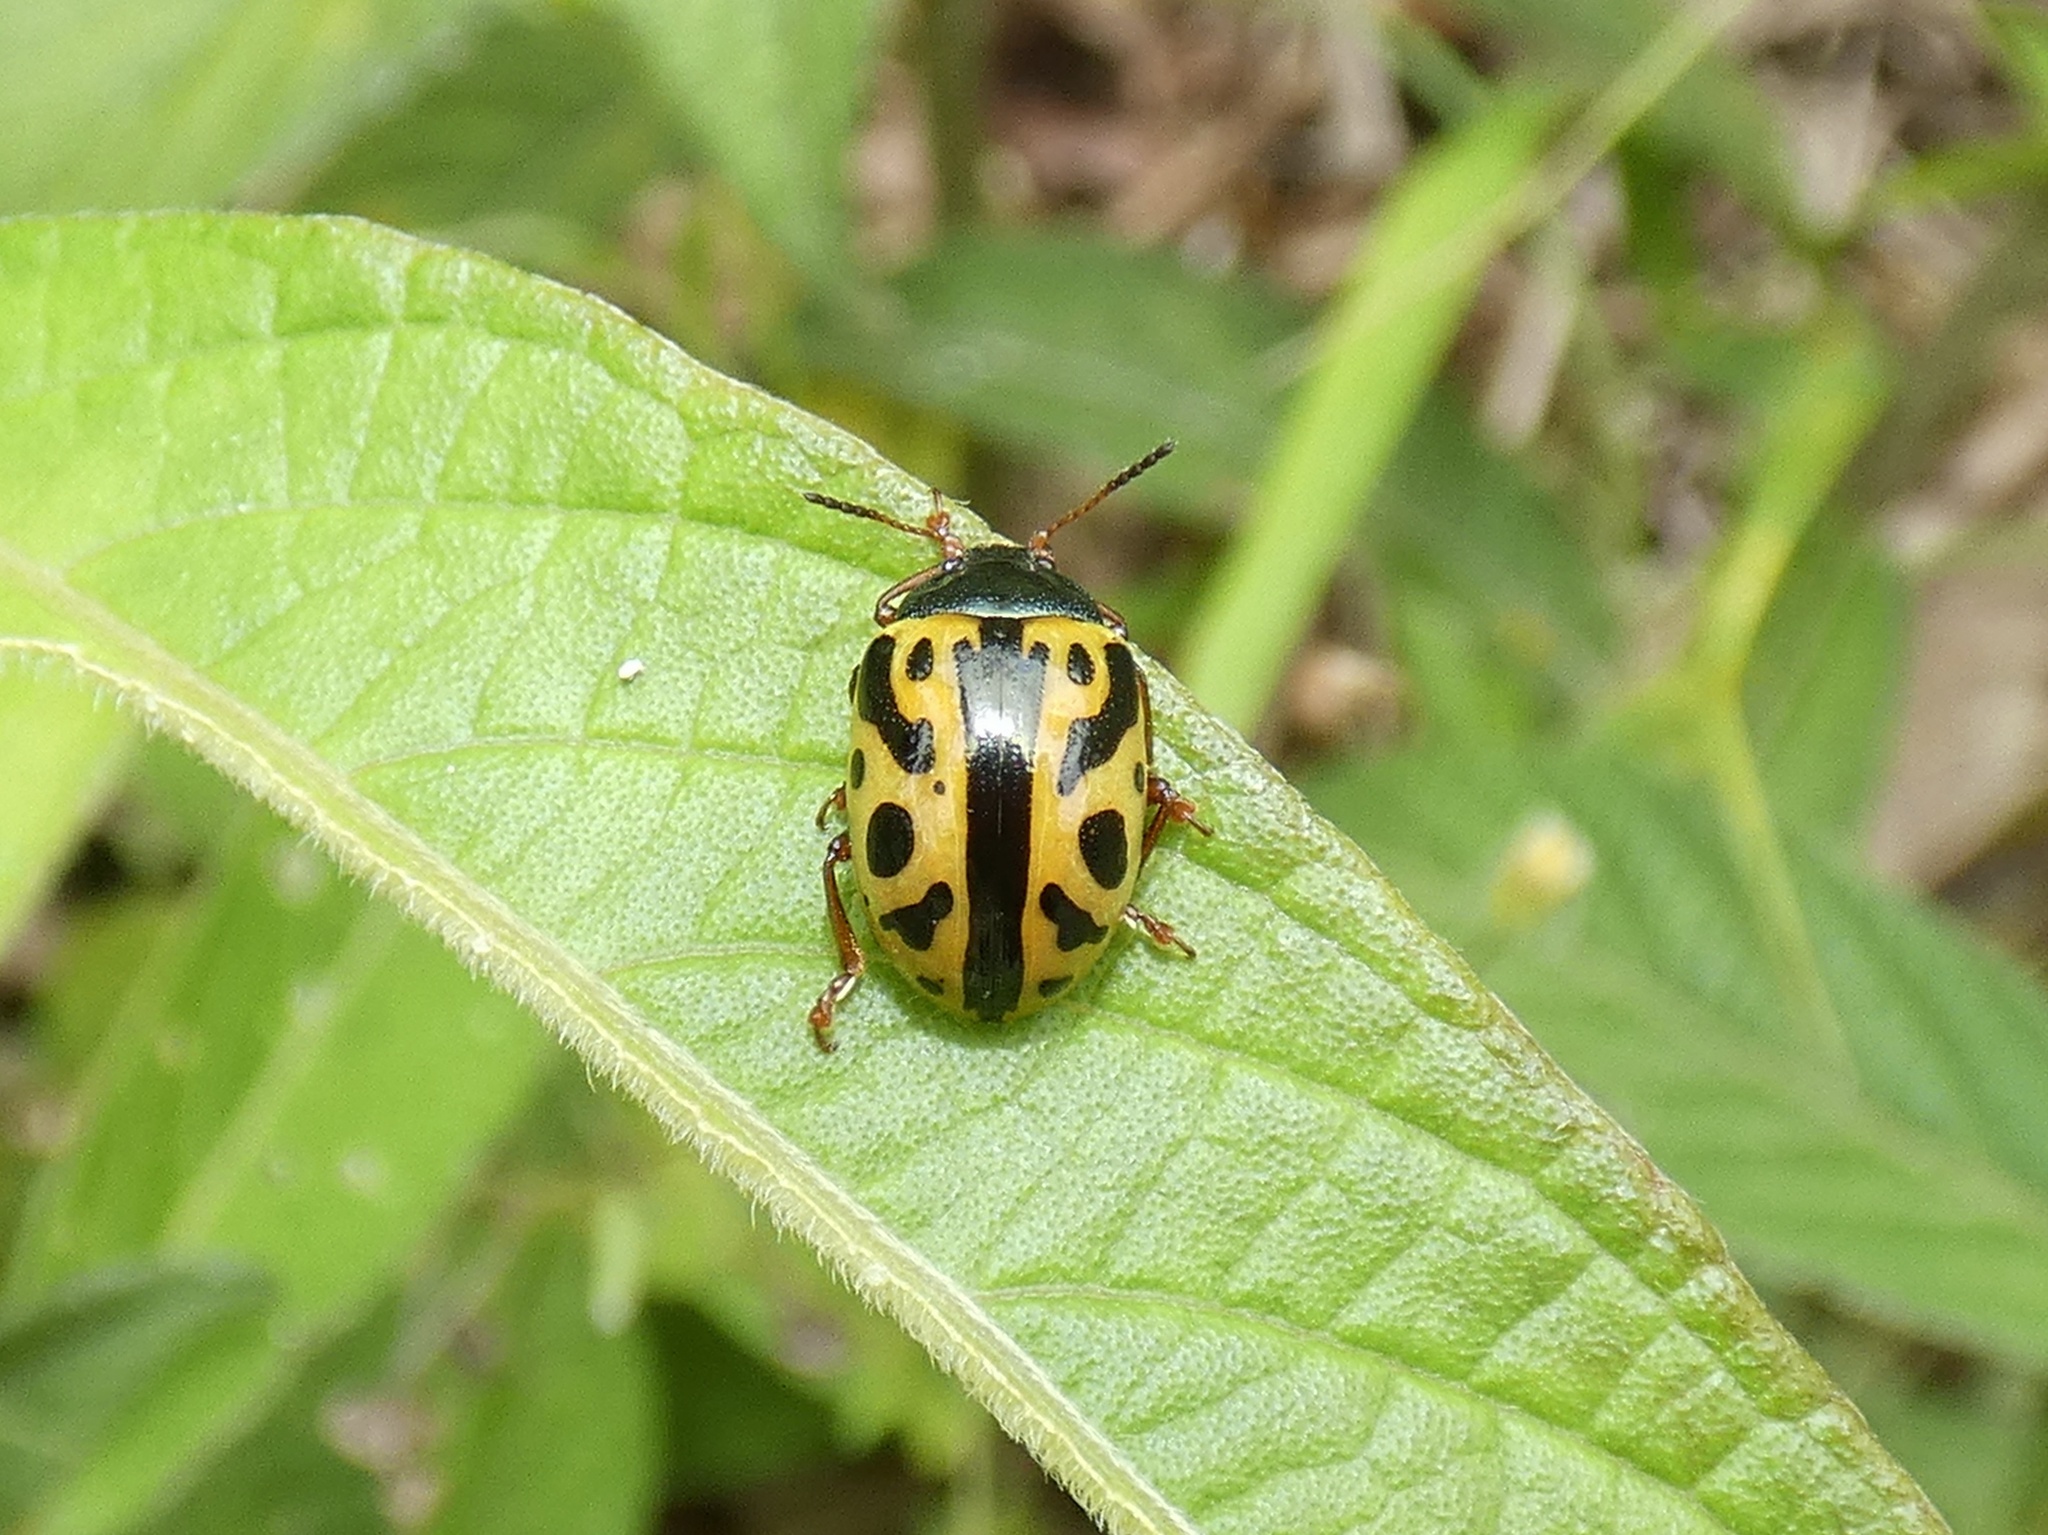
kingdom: Animalia
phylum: Arthropoda
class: Insecta
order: Coleoptera
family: Chrysomelidae
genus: Calligrapha
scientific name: Calligrapha fulvipes
